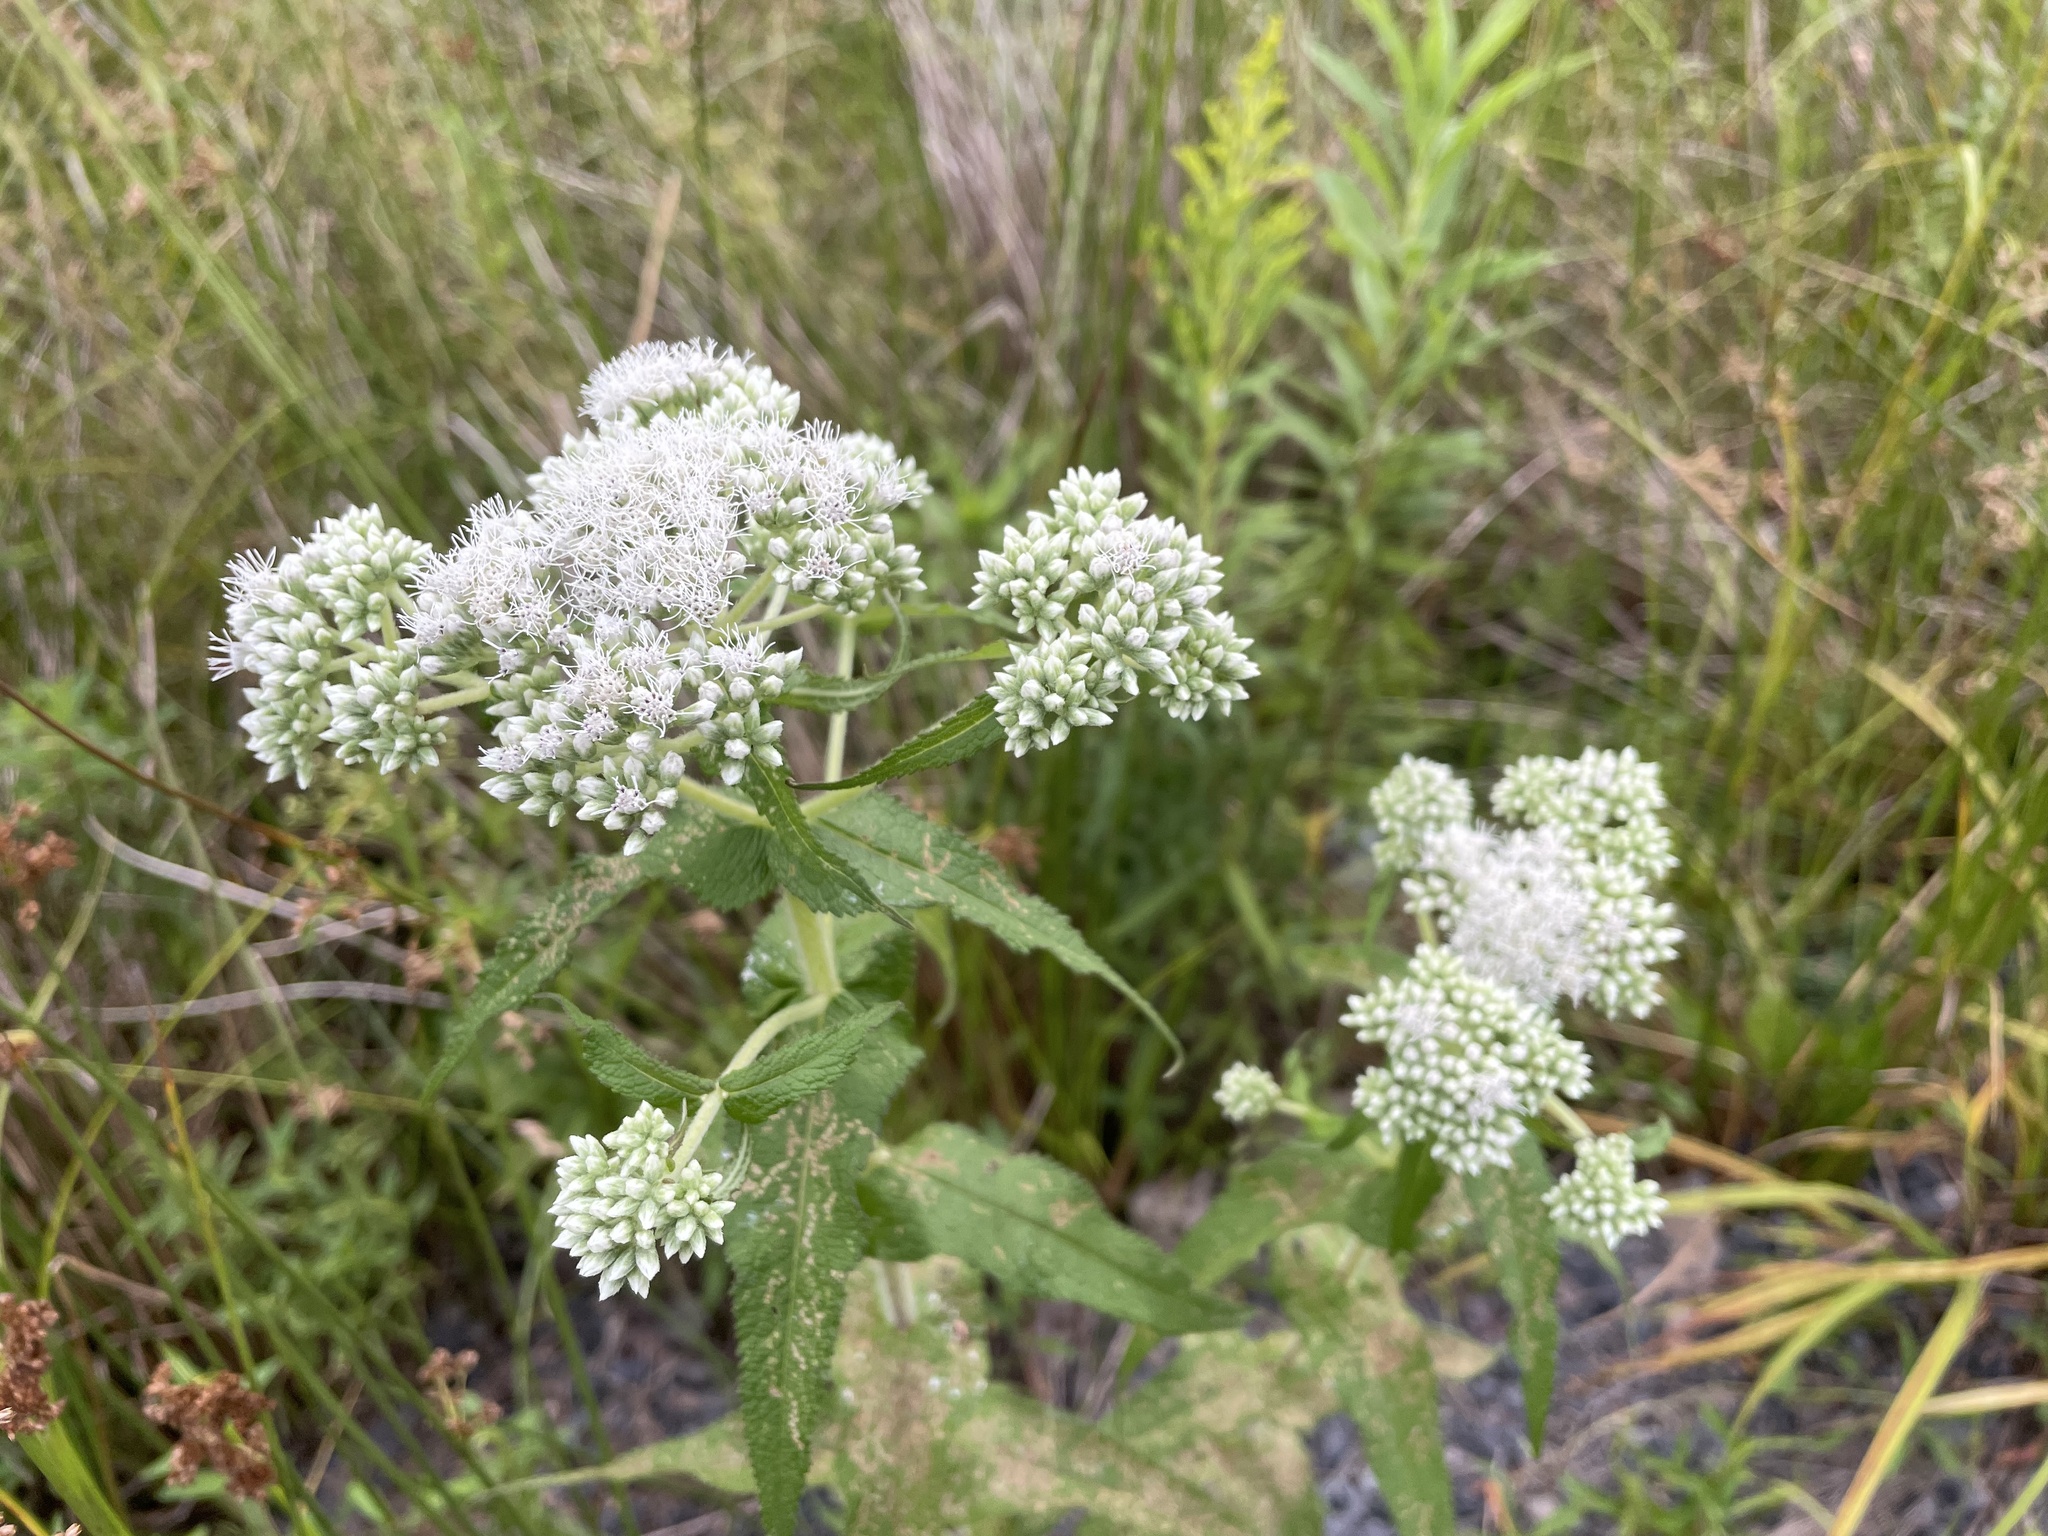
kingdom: Plantae
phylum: Tracheophyta
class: Magnoliopsida
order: Asterales
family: Asteraceae
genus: Eupatorium
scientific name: Eupatorium perfoliatum
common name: Boneset
